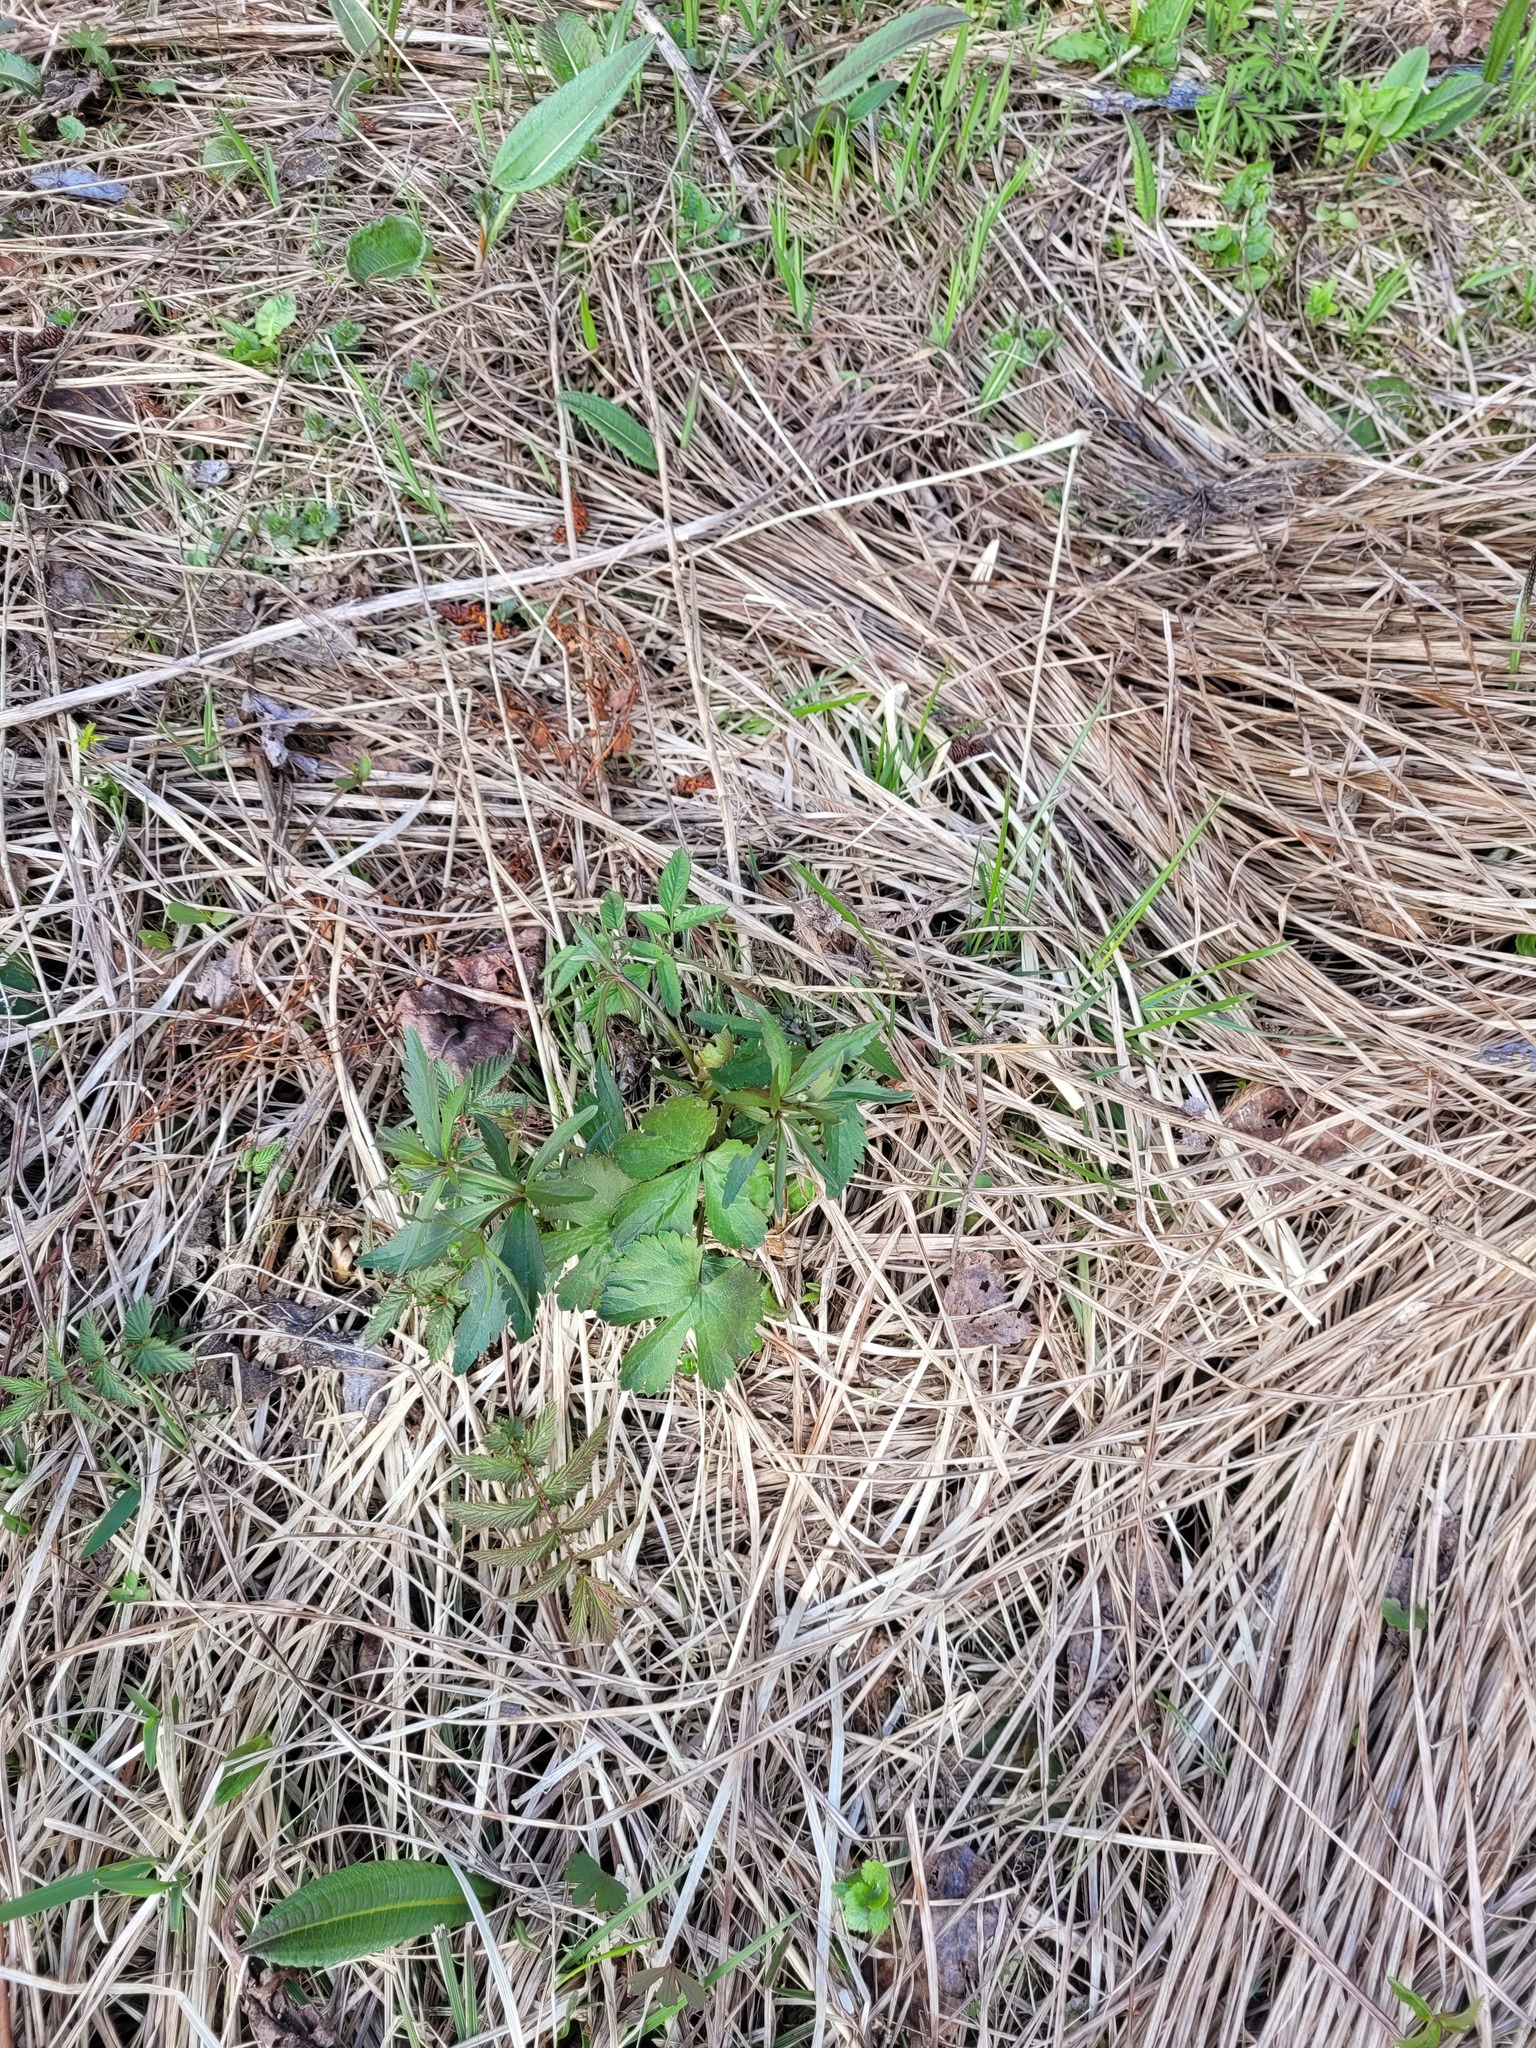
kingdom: Plantae
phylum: Tracheophyta
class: Magnoliopsida
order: Ranunculales
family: Ranunculaceae
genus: Ranunculus
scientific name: Ranunculus fallax
